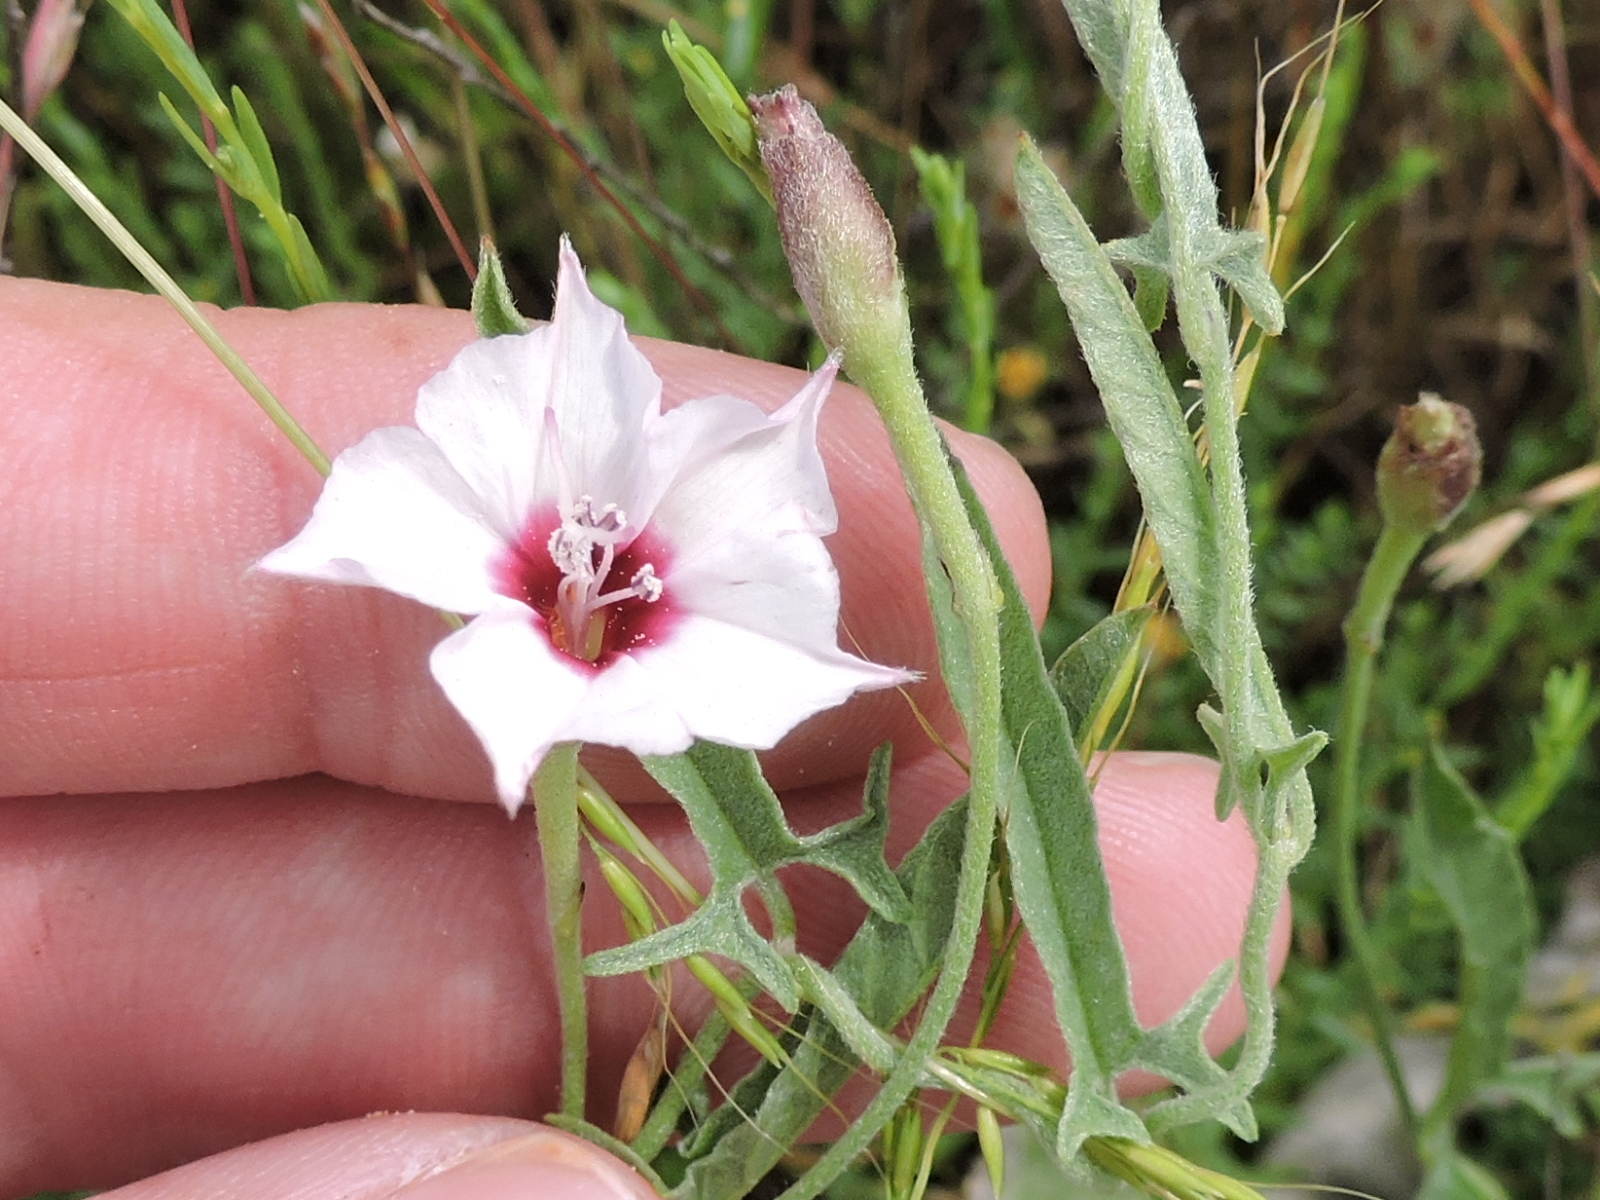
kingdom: Plantae
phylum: Tracheophyta
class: Magnoliopsida
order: Solanales
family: Convolvulaceae
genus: Convolvulus
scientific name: Convolvulus equitans
